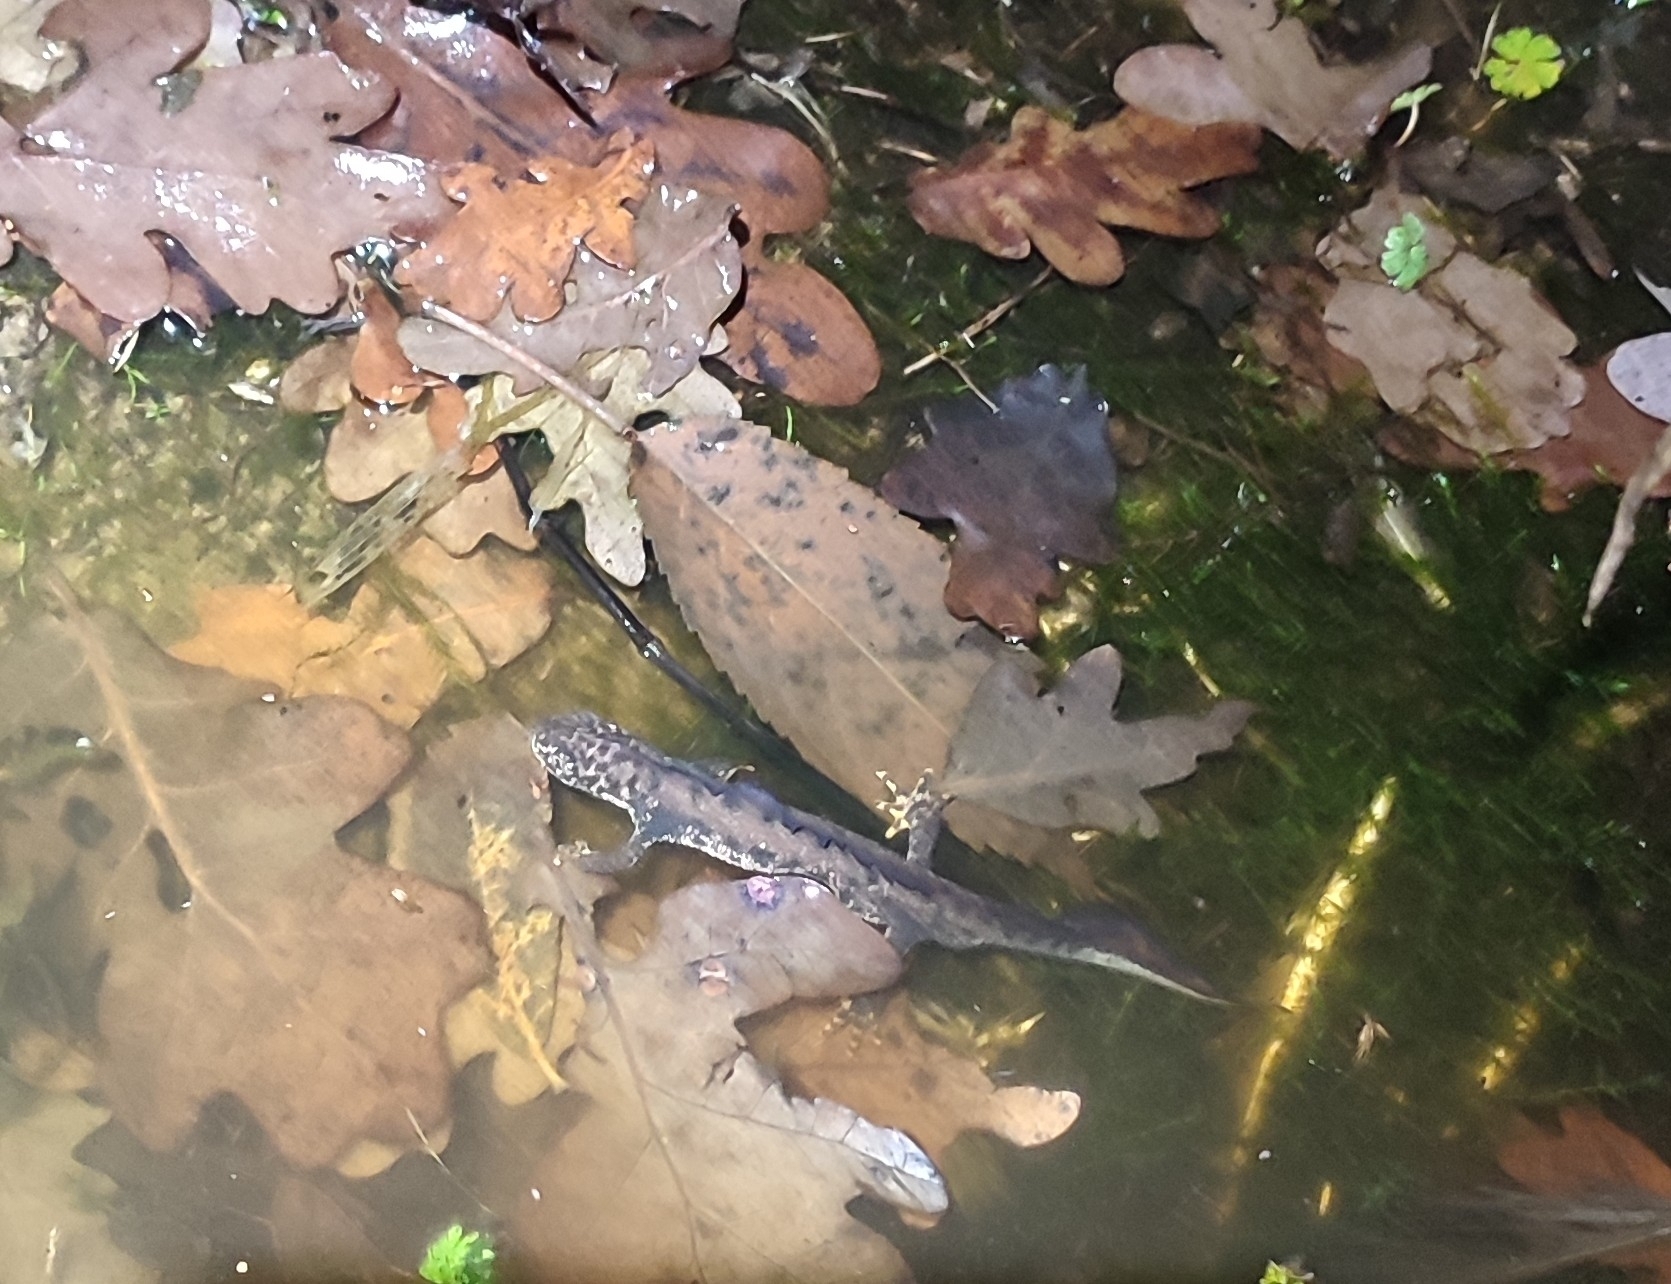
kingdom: Animalia
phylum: Chordata
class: Amphibia
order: Caudata
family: Salamandridae
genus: Triturus
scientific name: Triturus cristatus
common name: Crested newt
